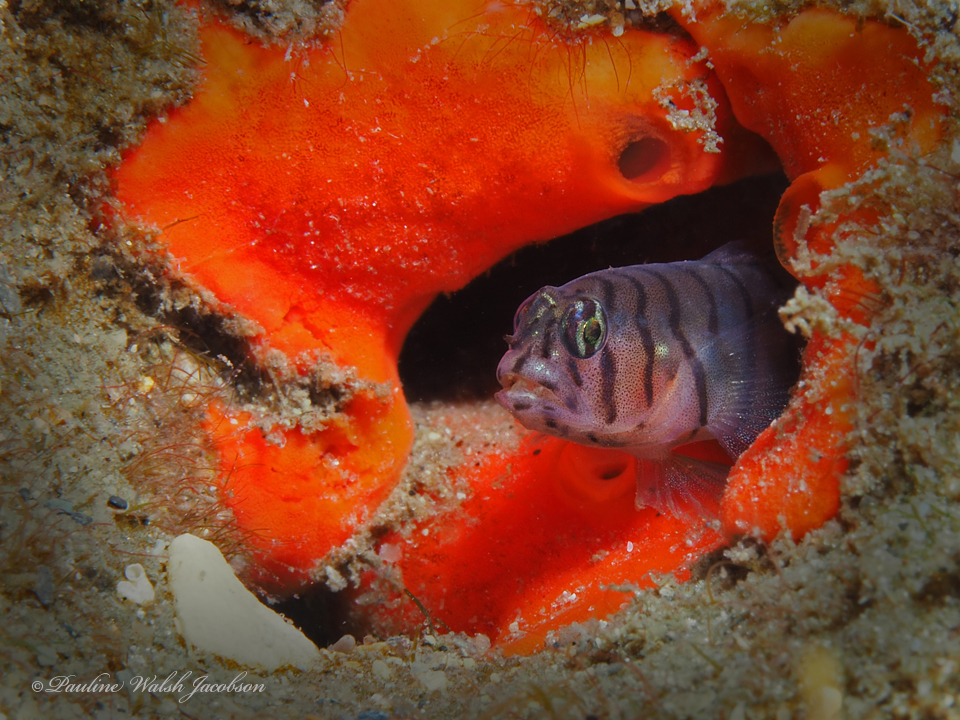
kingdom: Animalia
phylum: Chordata
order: Perciformes
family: Gobiidae
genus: Tigrigobius
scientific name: Tigrigobius macrodon
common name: Tiger goby
